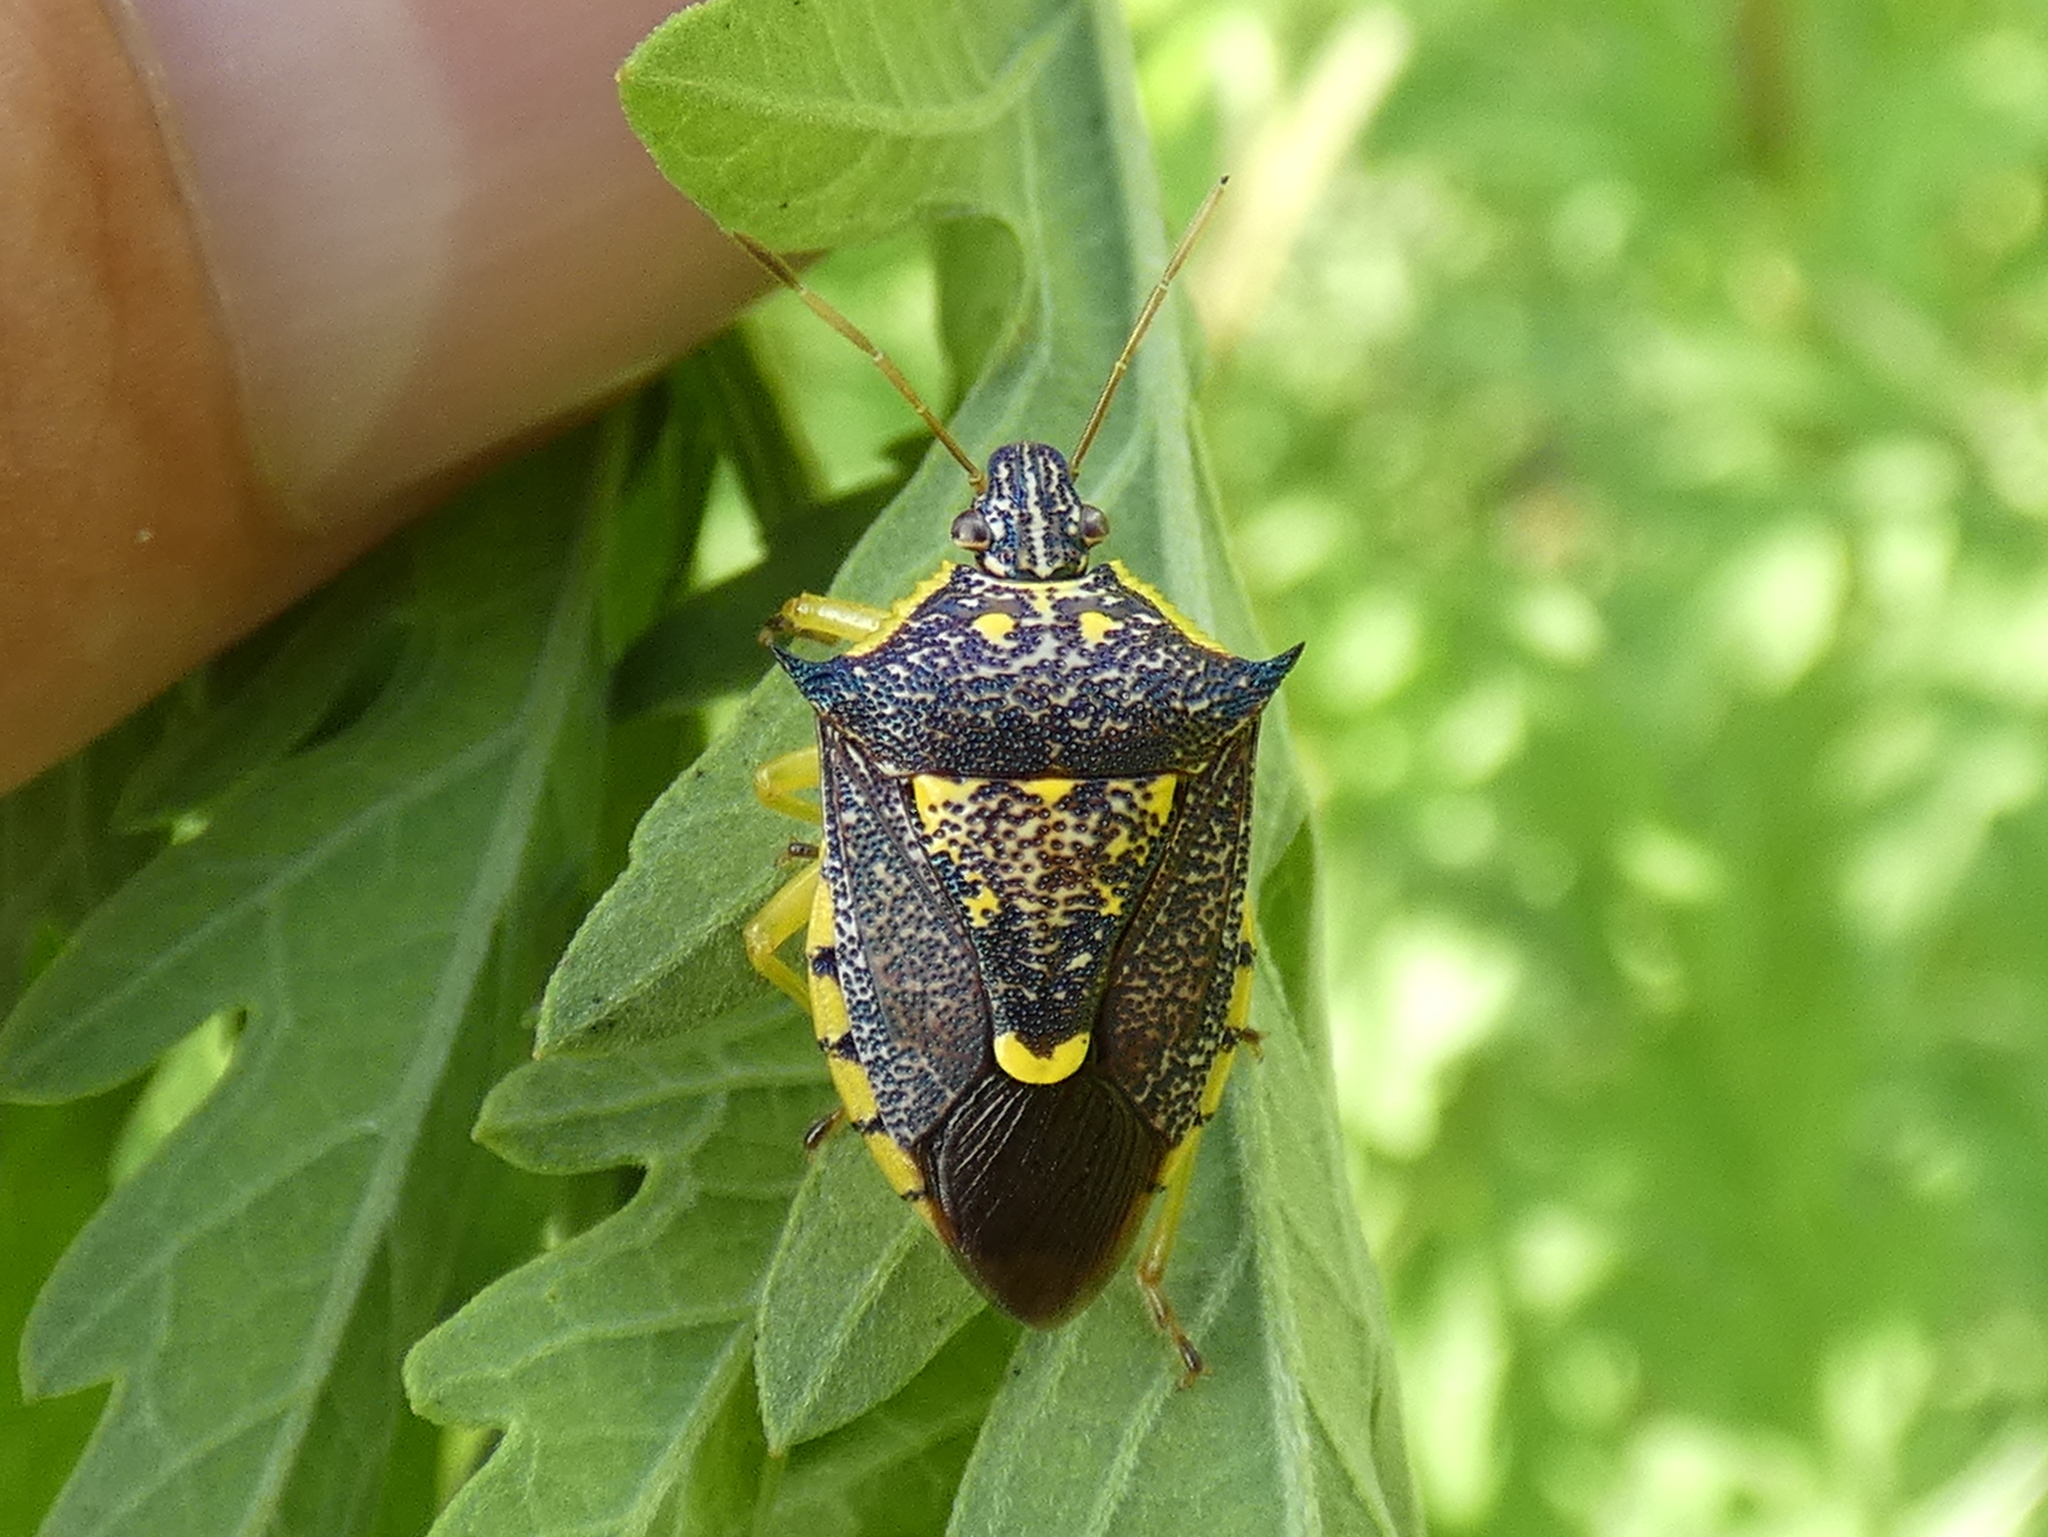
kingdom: Animalia
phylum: Arthropoda
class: Insecta
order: Hemiptera
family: Pentatomidae
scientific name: Pentatomidae
